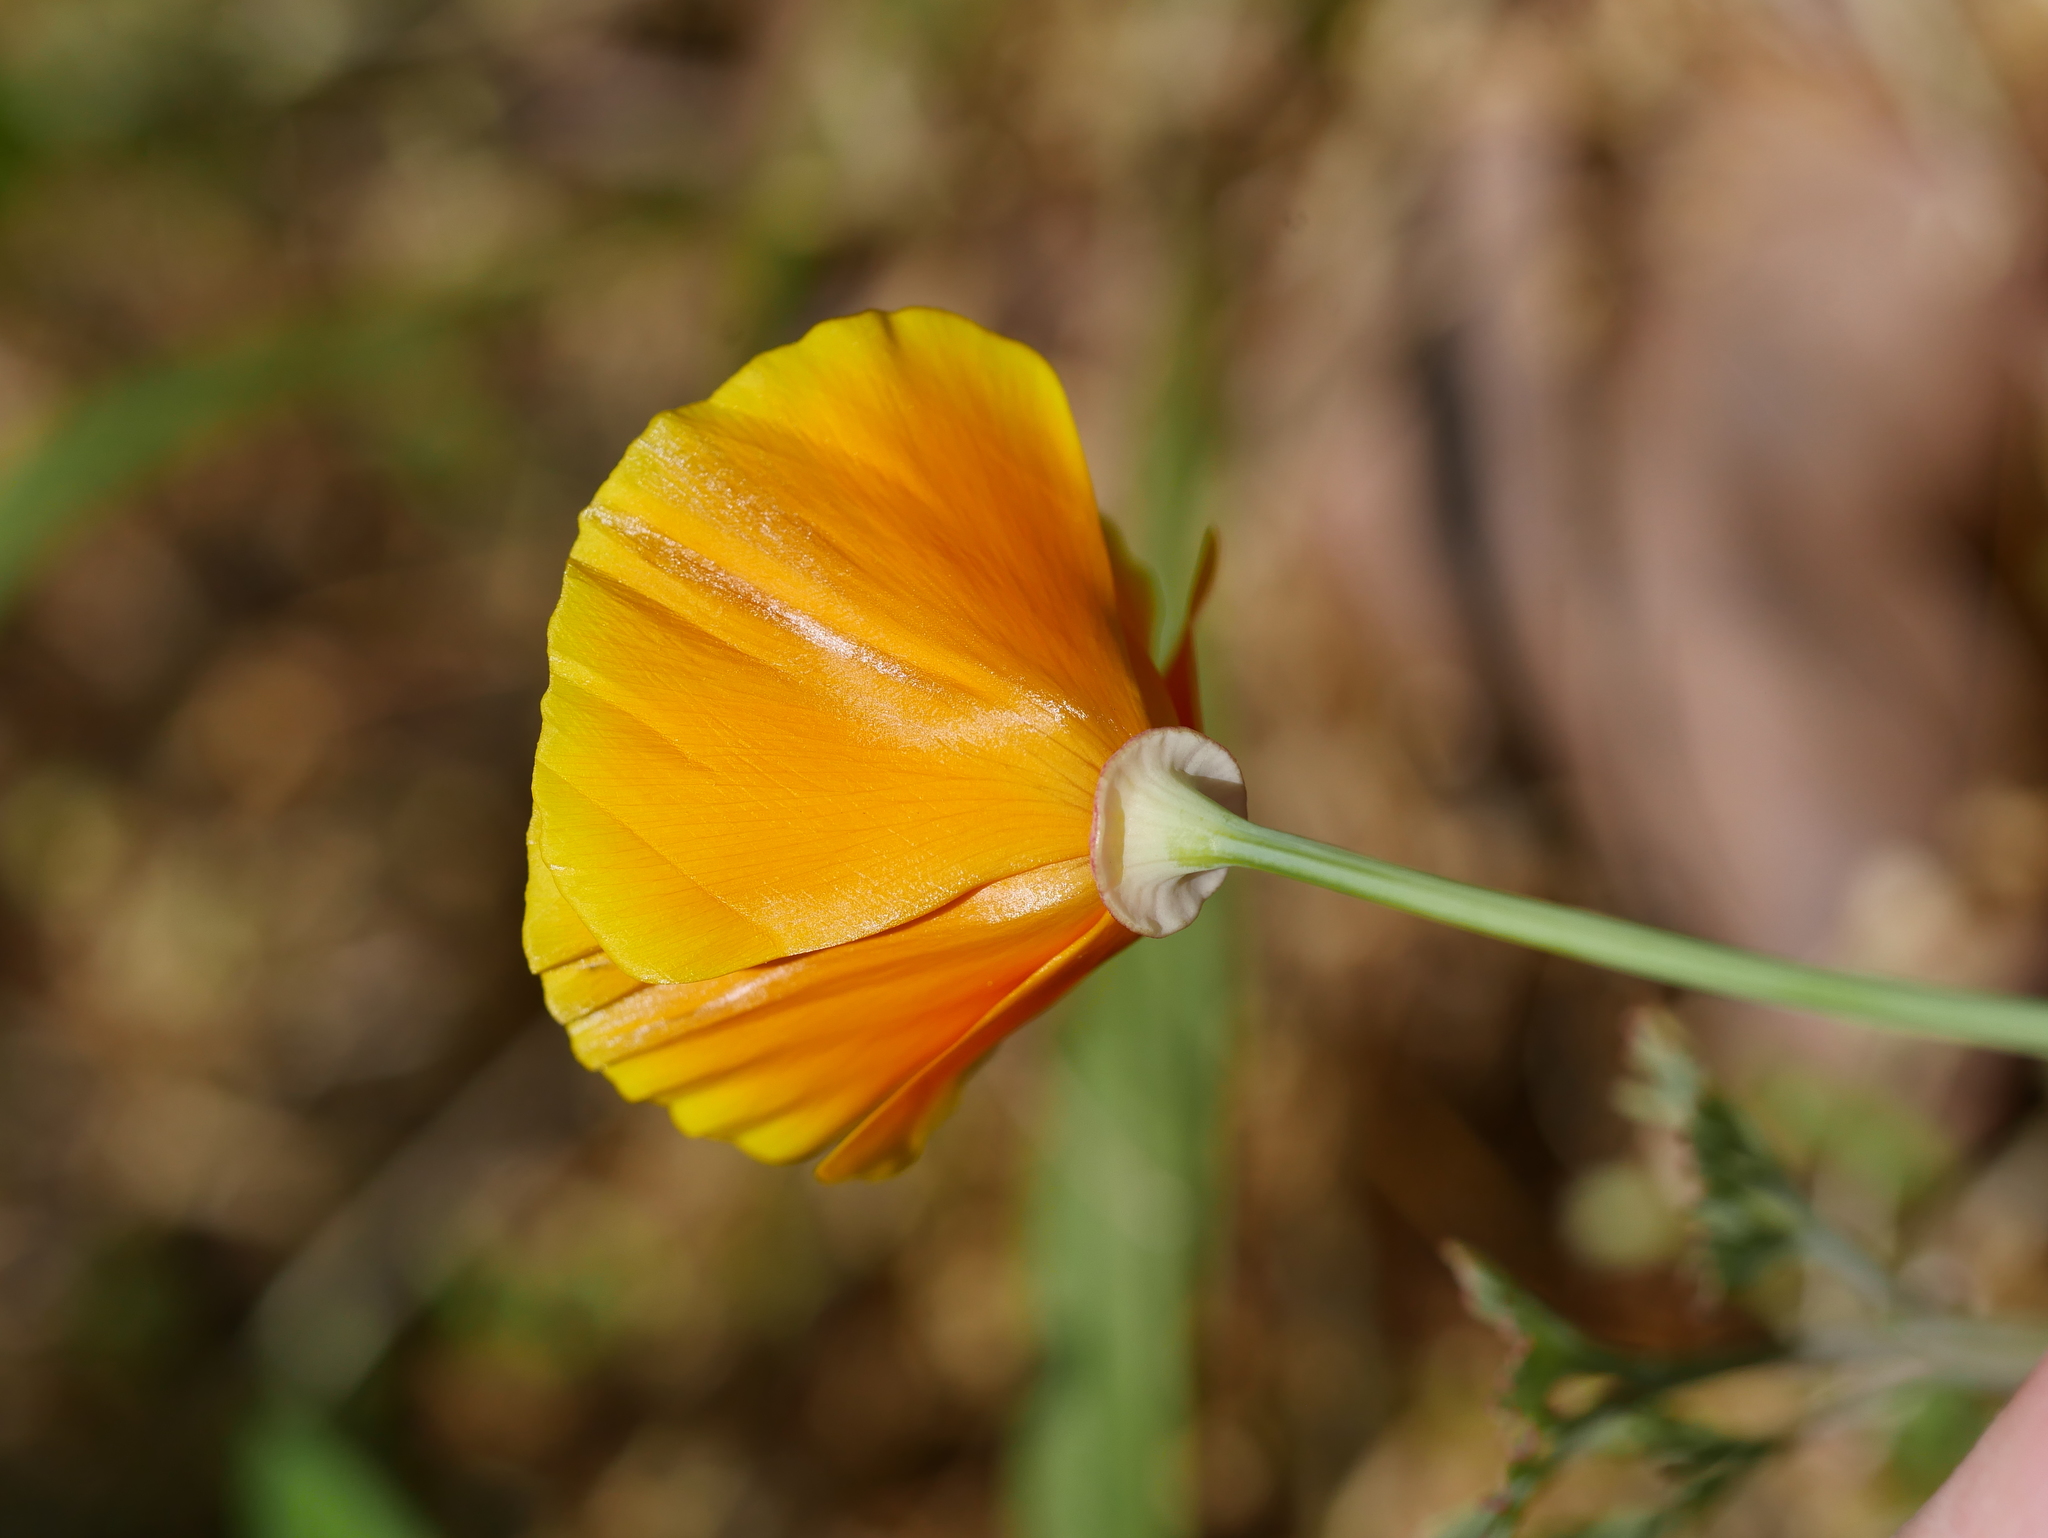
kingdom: Plantae
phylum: Tracheophyta
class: Magnoliopsida
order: Ranunculales
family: Papaveraceae
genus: Eschscholzia
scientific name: Eschscholzia californica
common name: California poppy
